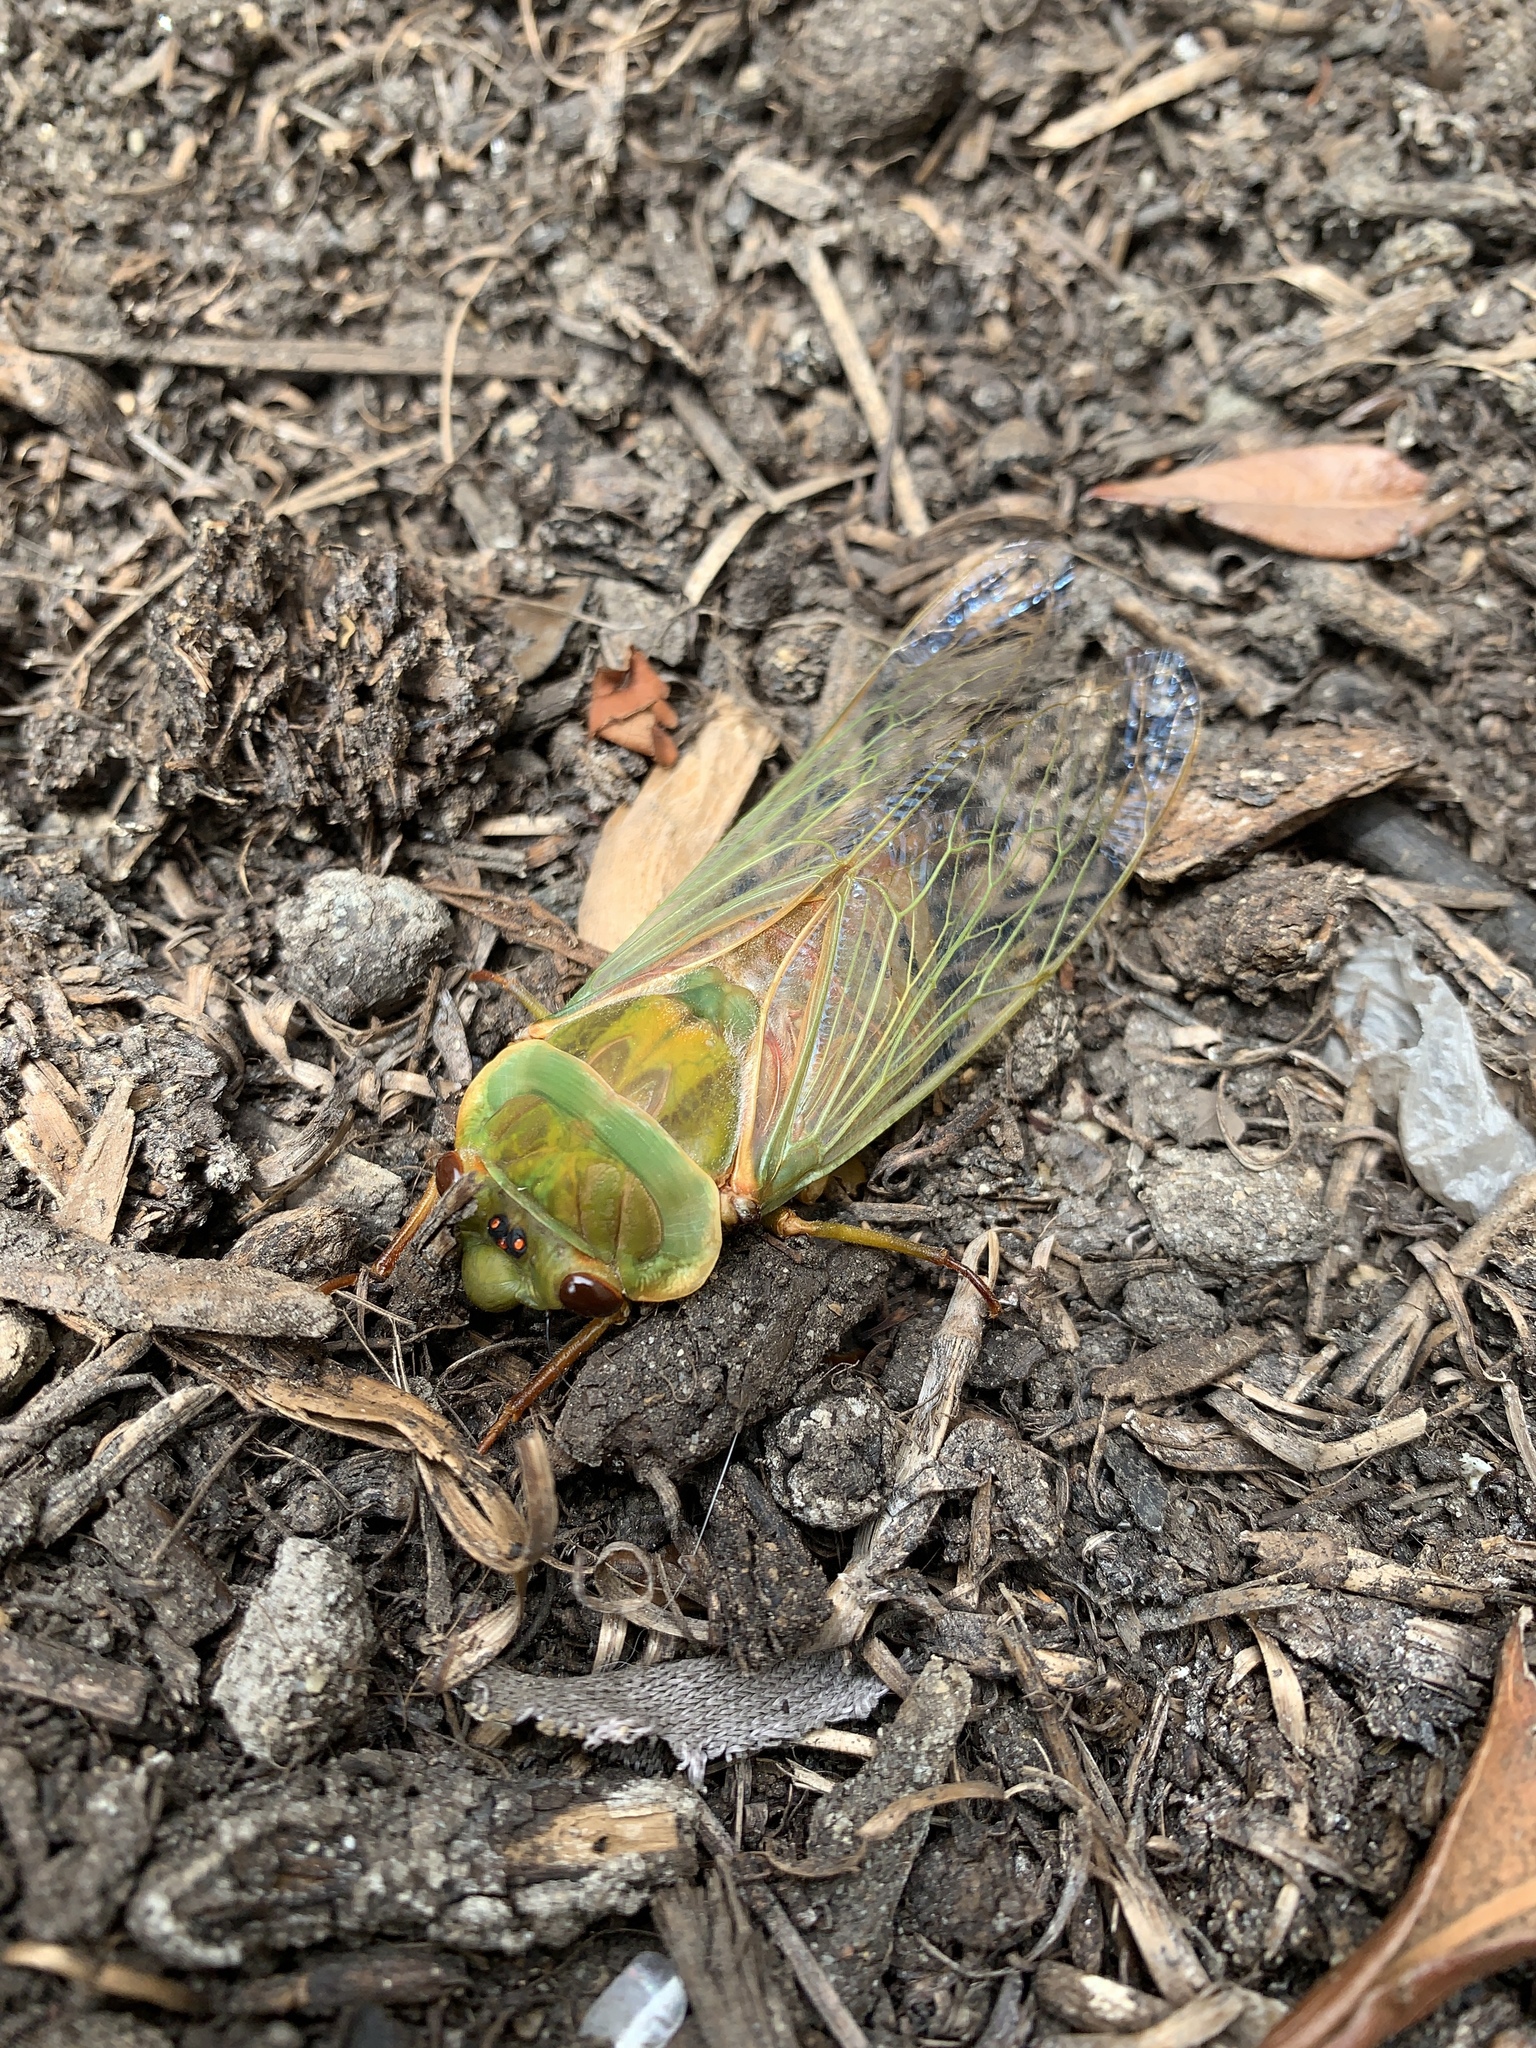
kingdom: Animalia
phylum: Arthropoda
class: Insecta
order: Hemiptera
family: Cicadidae
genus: Cyclochila
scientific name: Cyclochila australasiae
